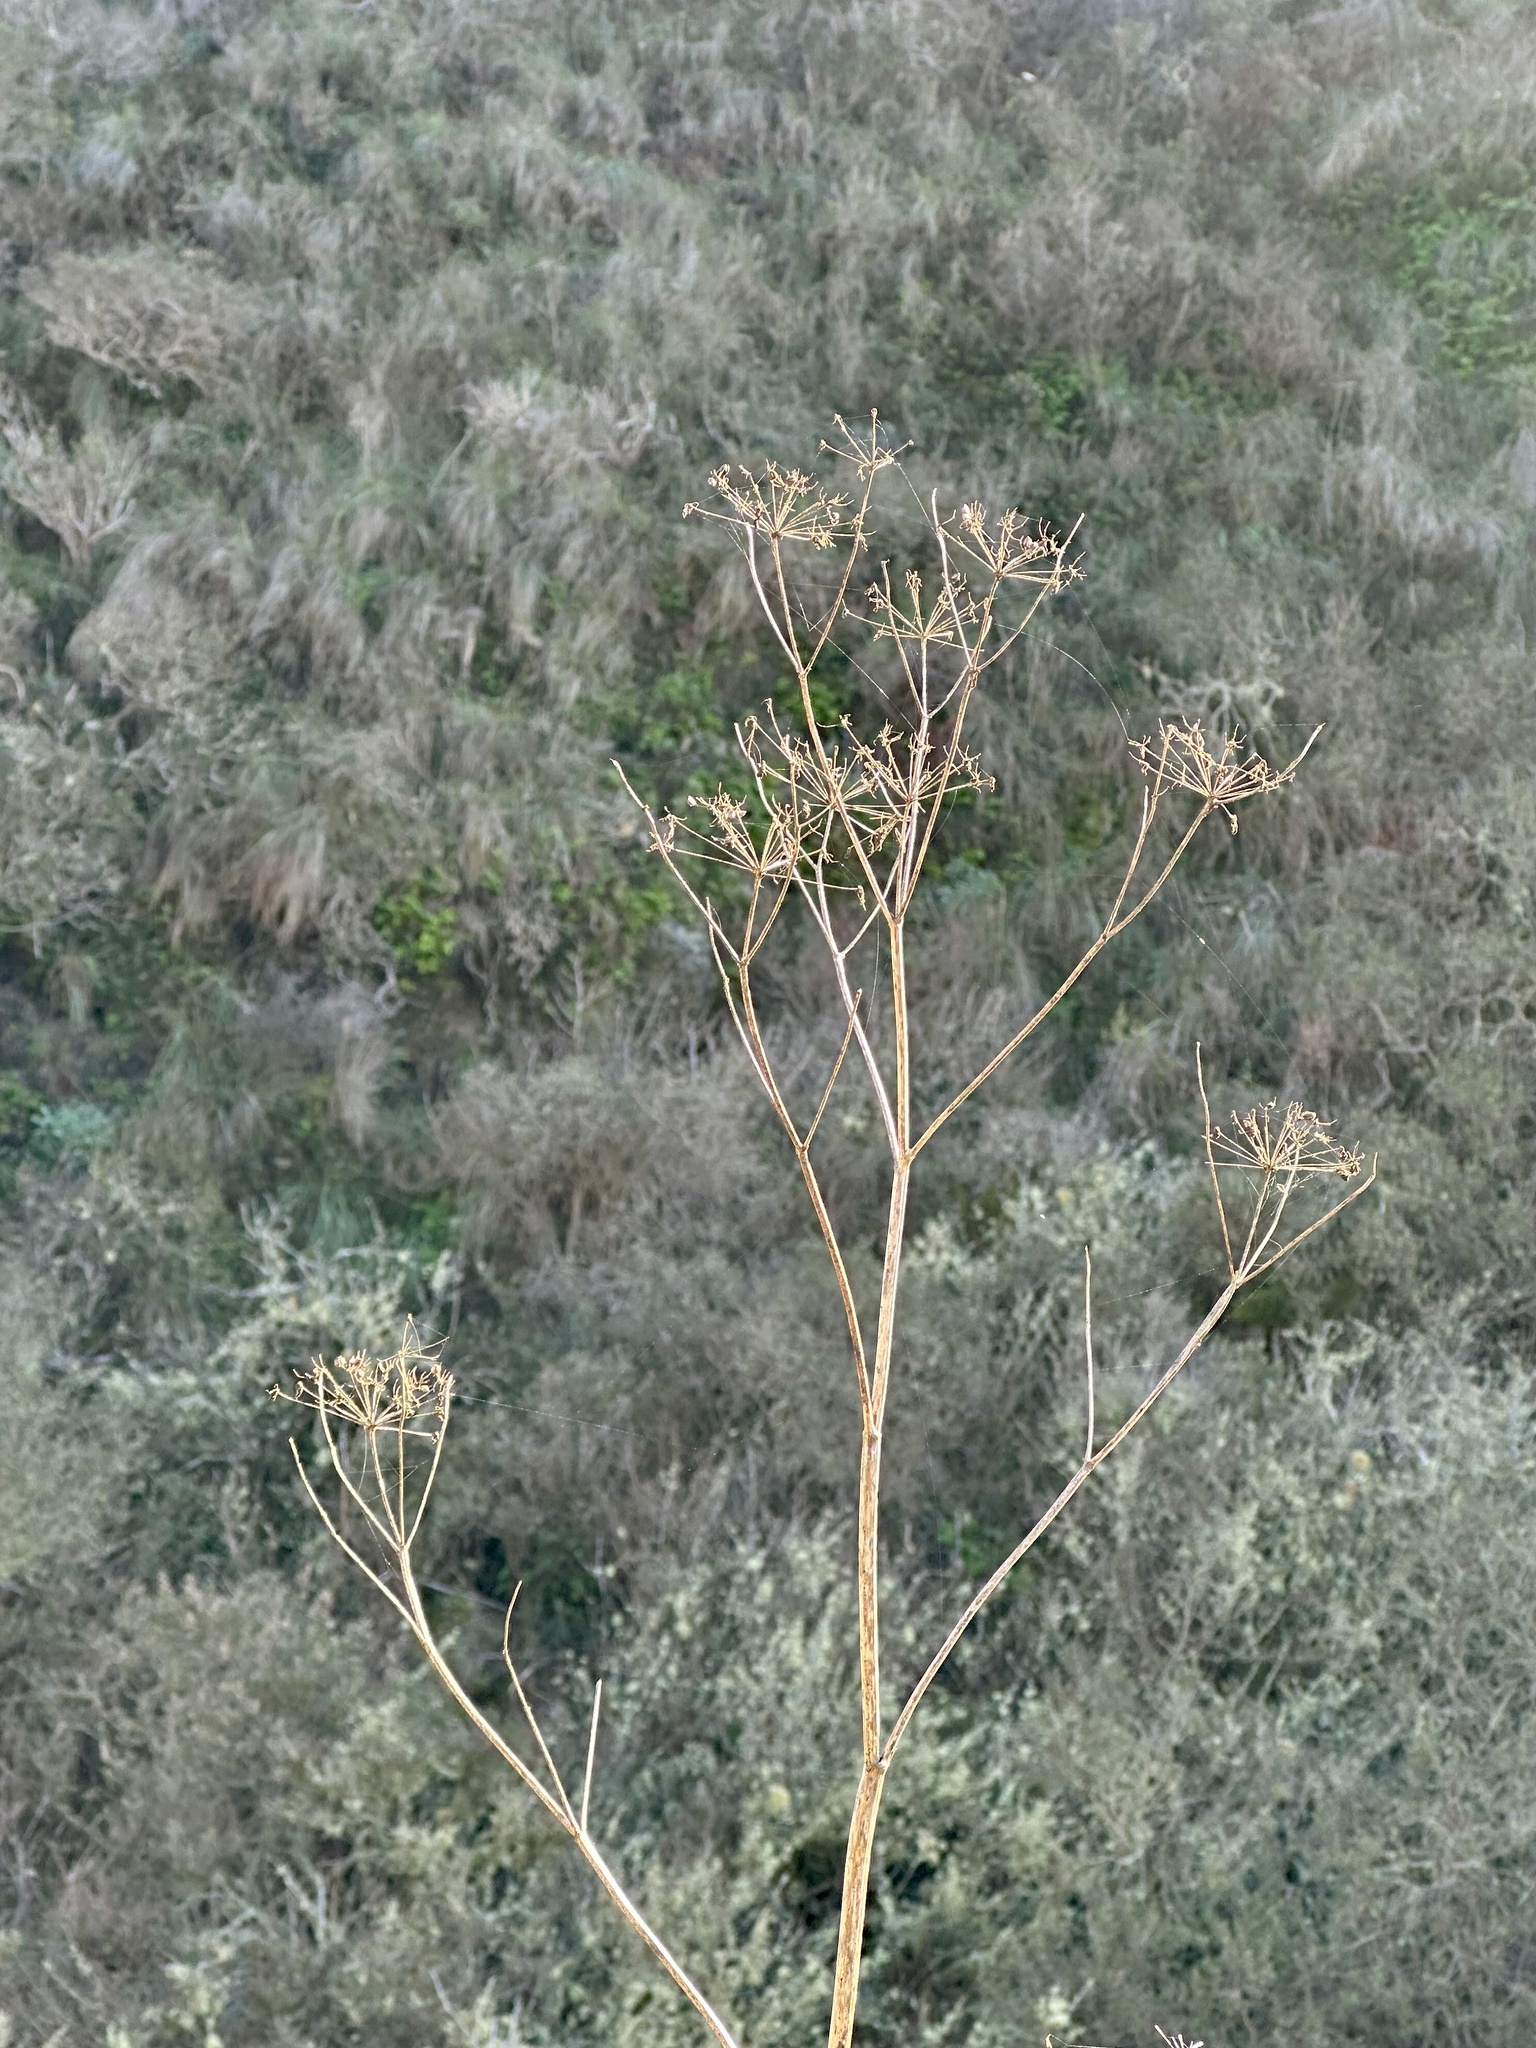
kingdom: Plantae
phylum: Tracheophyta
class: Magnoliopsida
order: Apiales
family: Apiaceae
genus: Foeniculum
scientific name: Foeniculum vulgare
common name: Fennel
